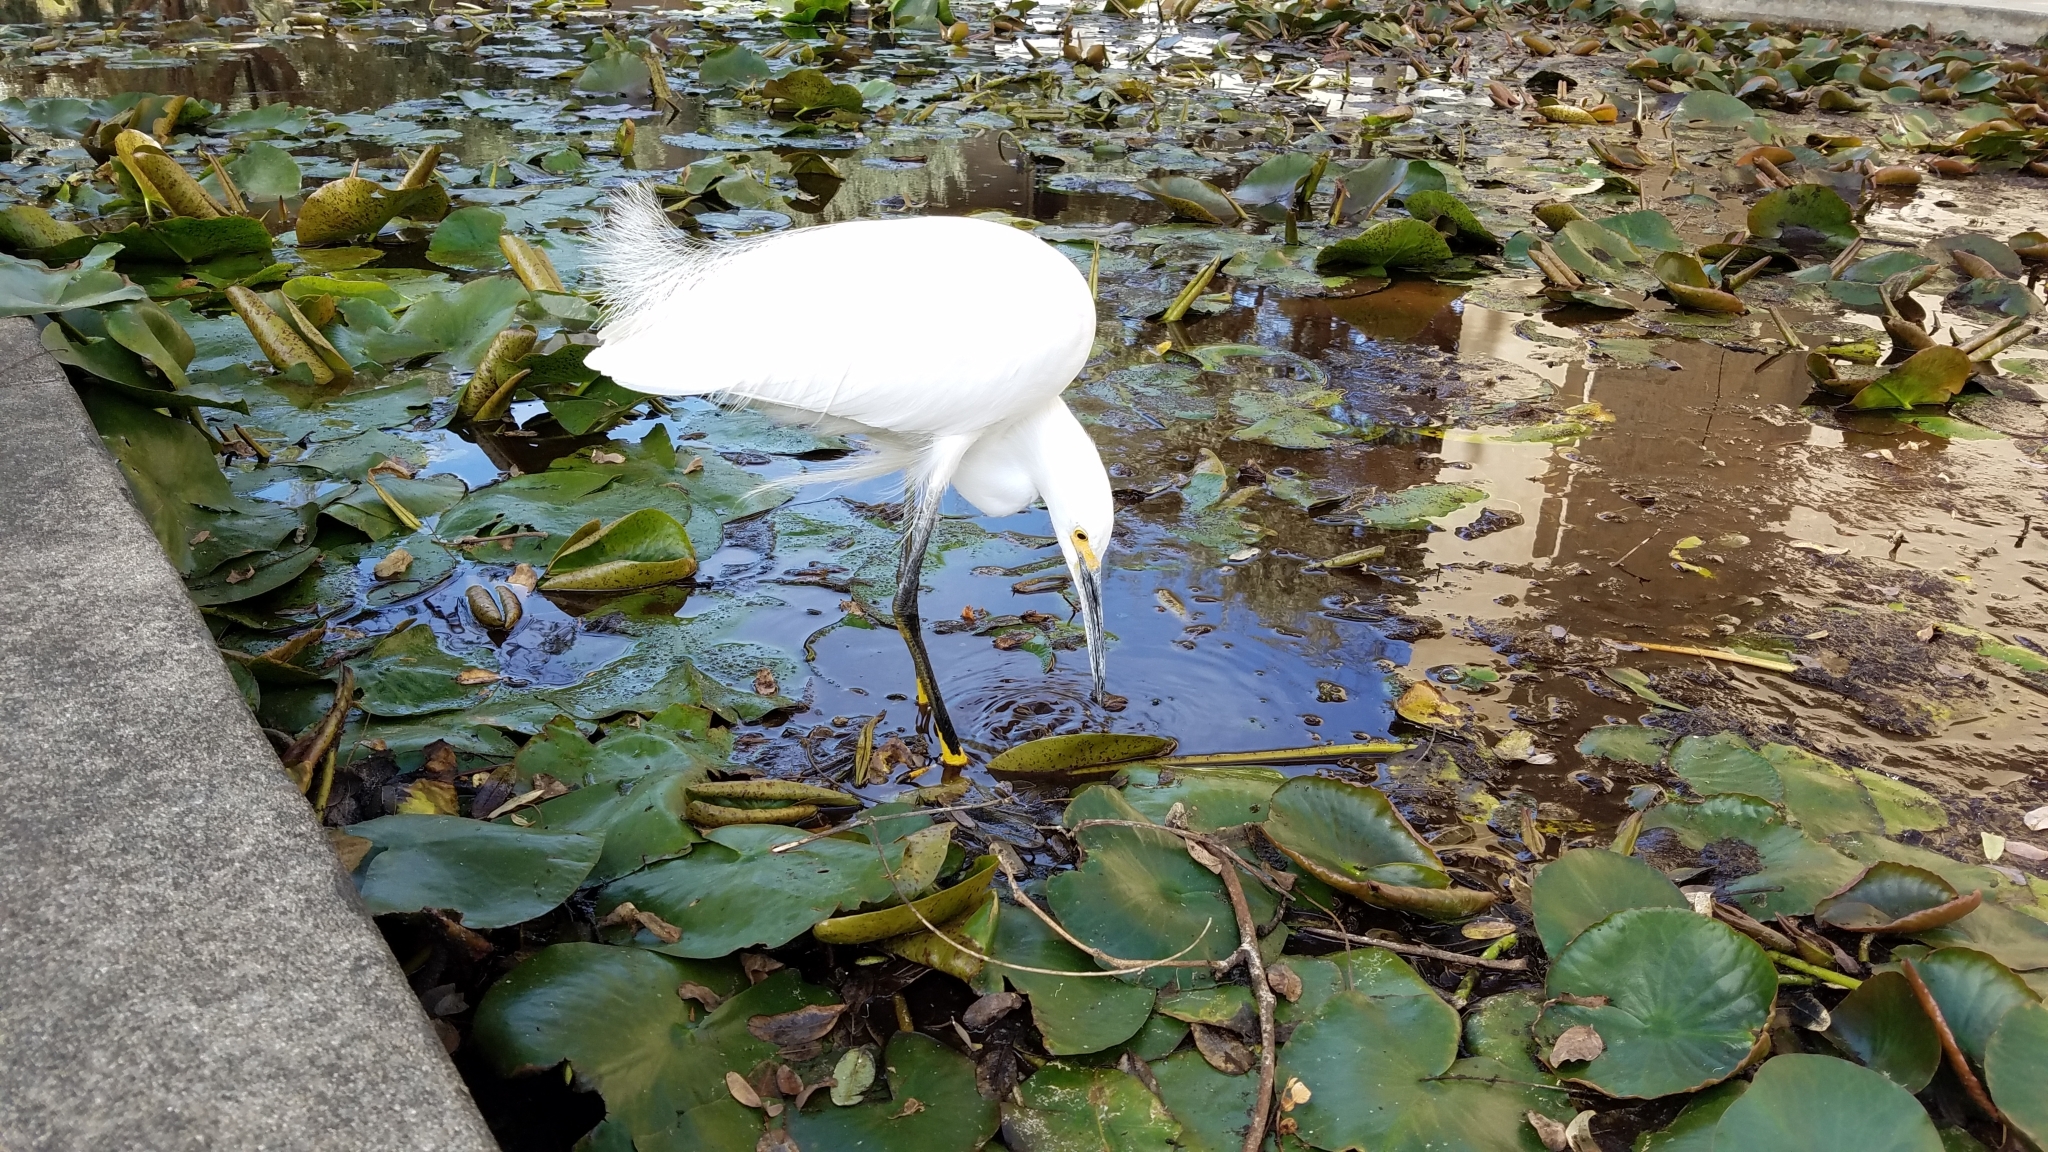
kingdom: Animalia
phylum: Chordata
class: Aves
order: Pelecaniformes
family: Ardeidae
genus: Egretta
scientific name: Egretta thula
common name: Snowy egret
